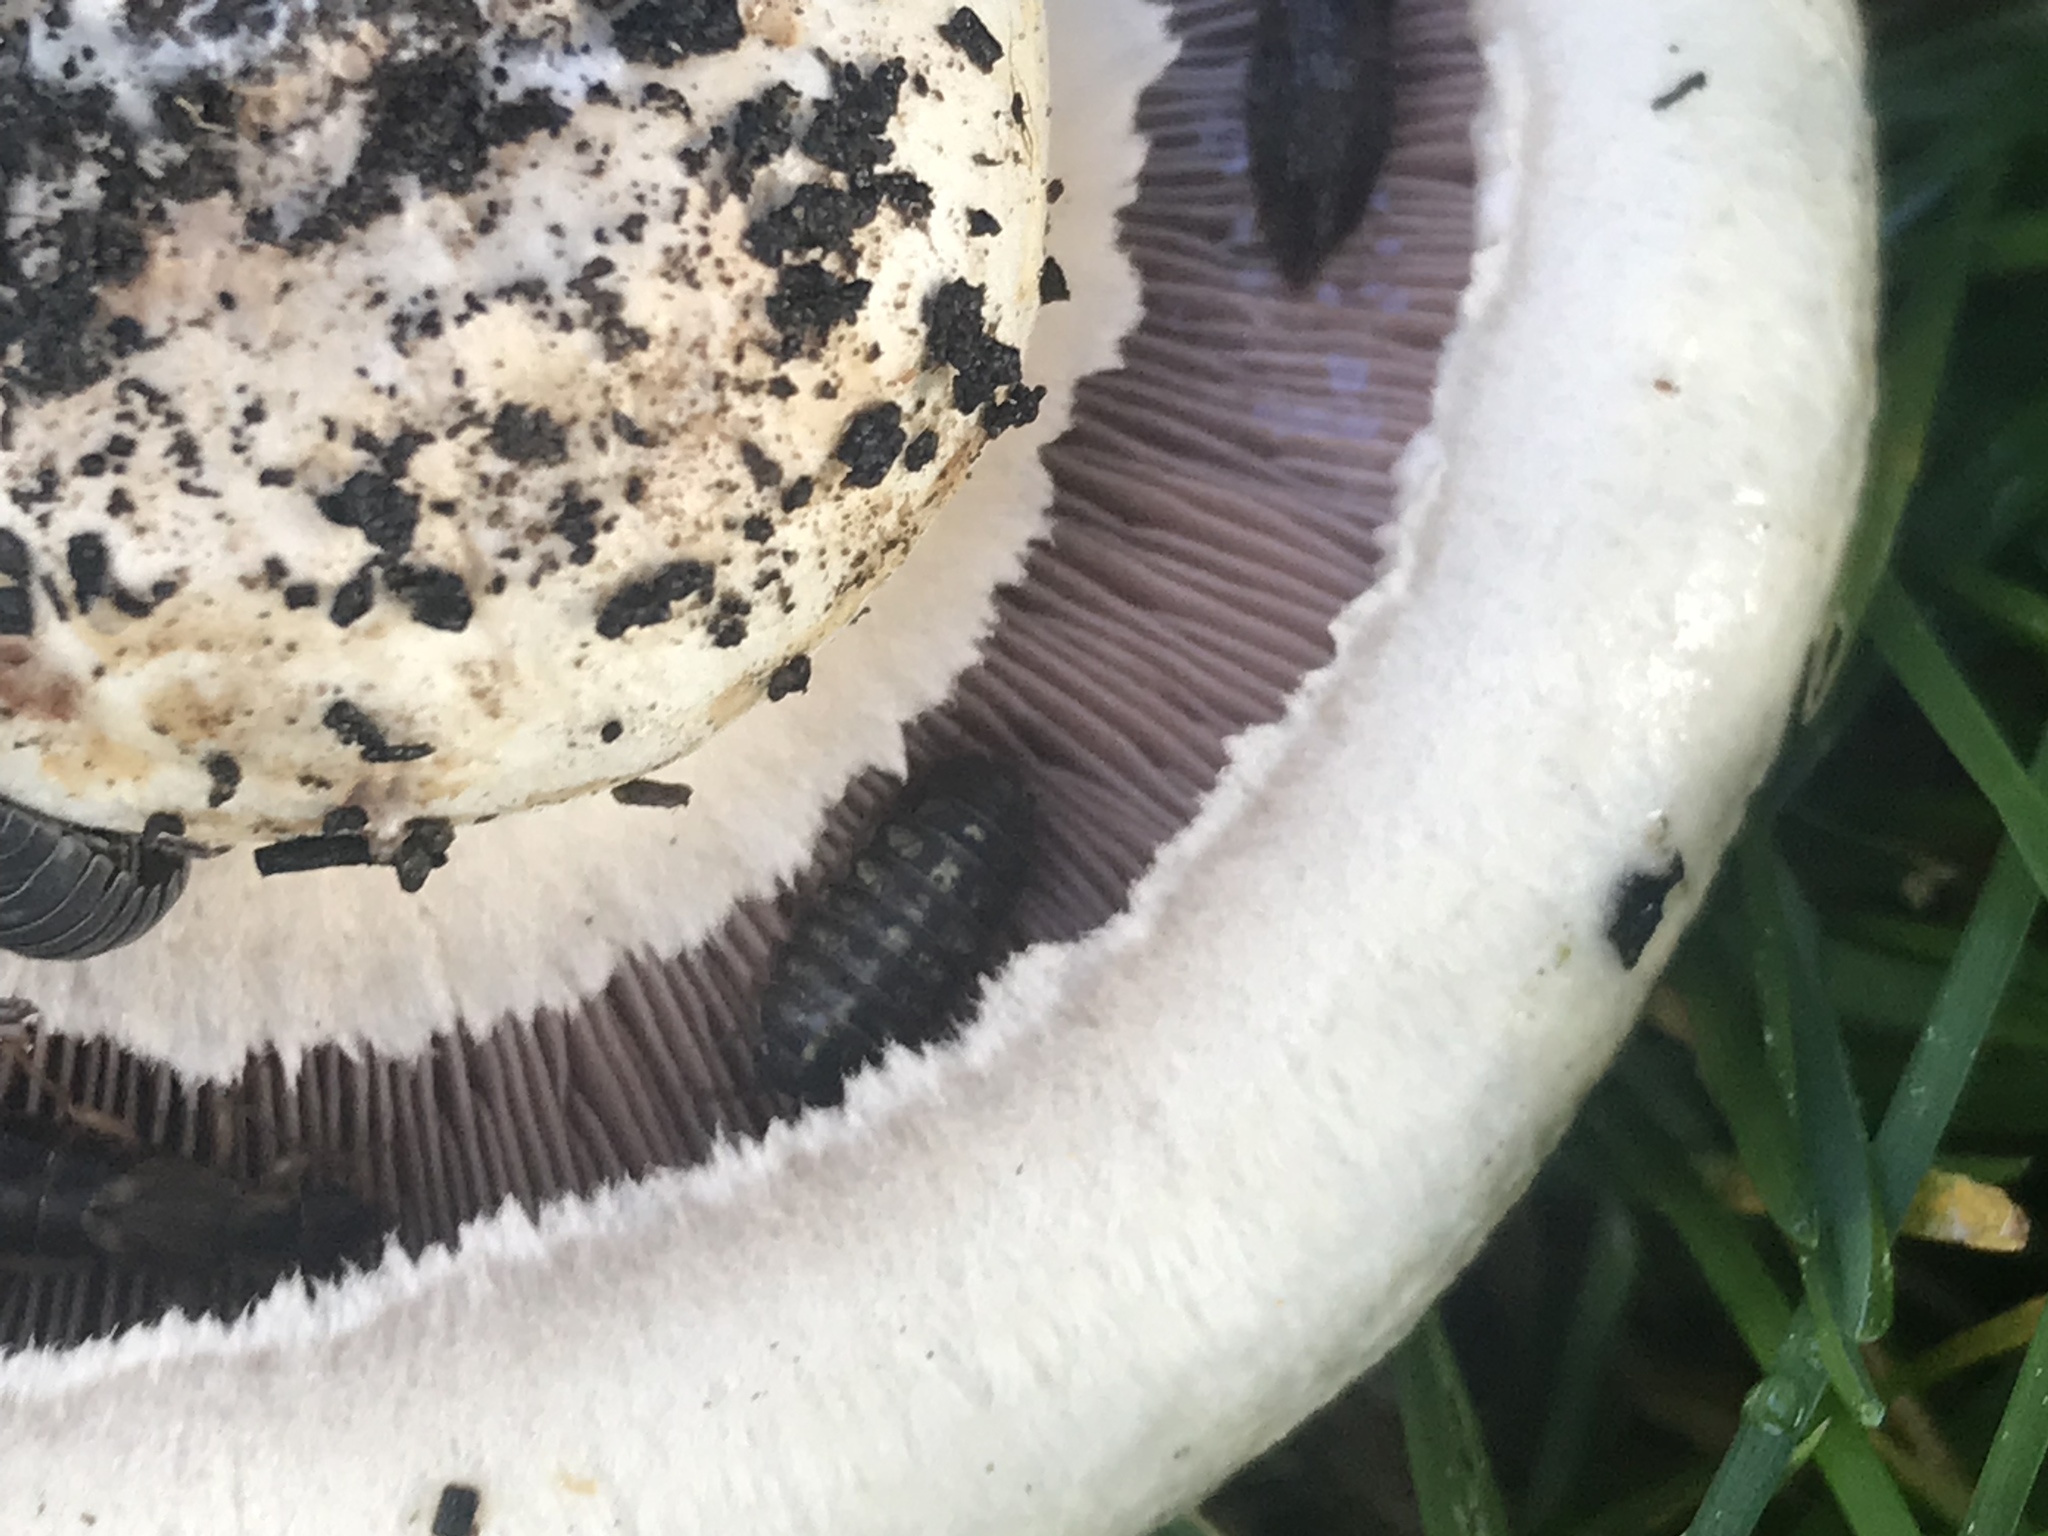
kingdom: Animalia
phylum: Arthropoda
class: Malacostraca
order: Isopoda
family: Armadillidiidae
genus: Armadillidium
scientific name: Armadillidium vulgare
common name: Common pill woodlouse
